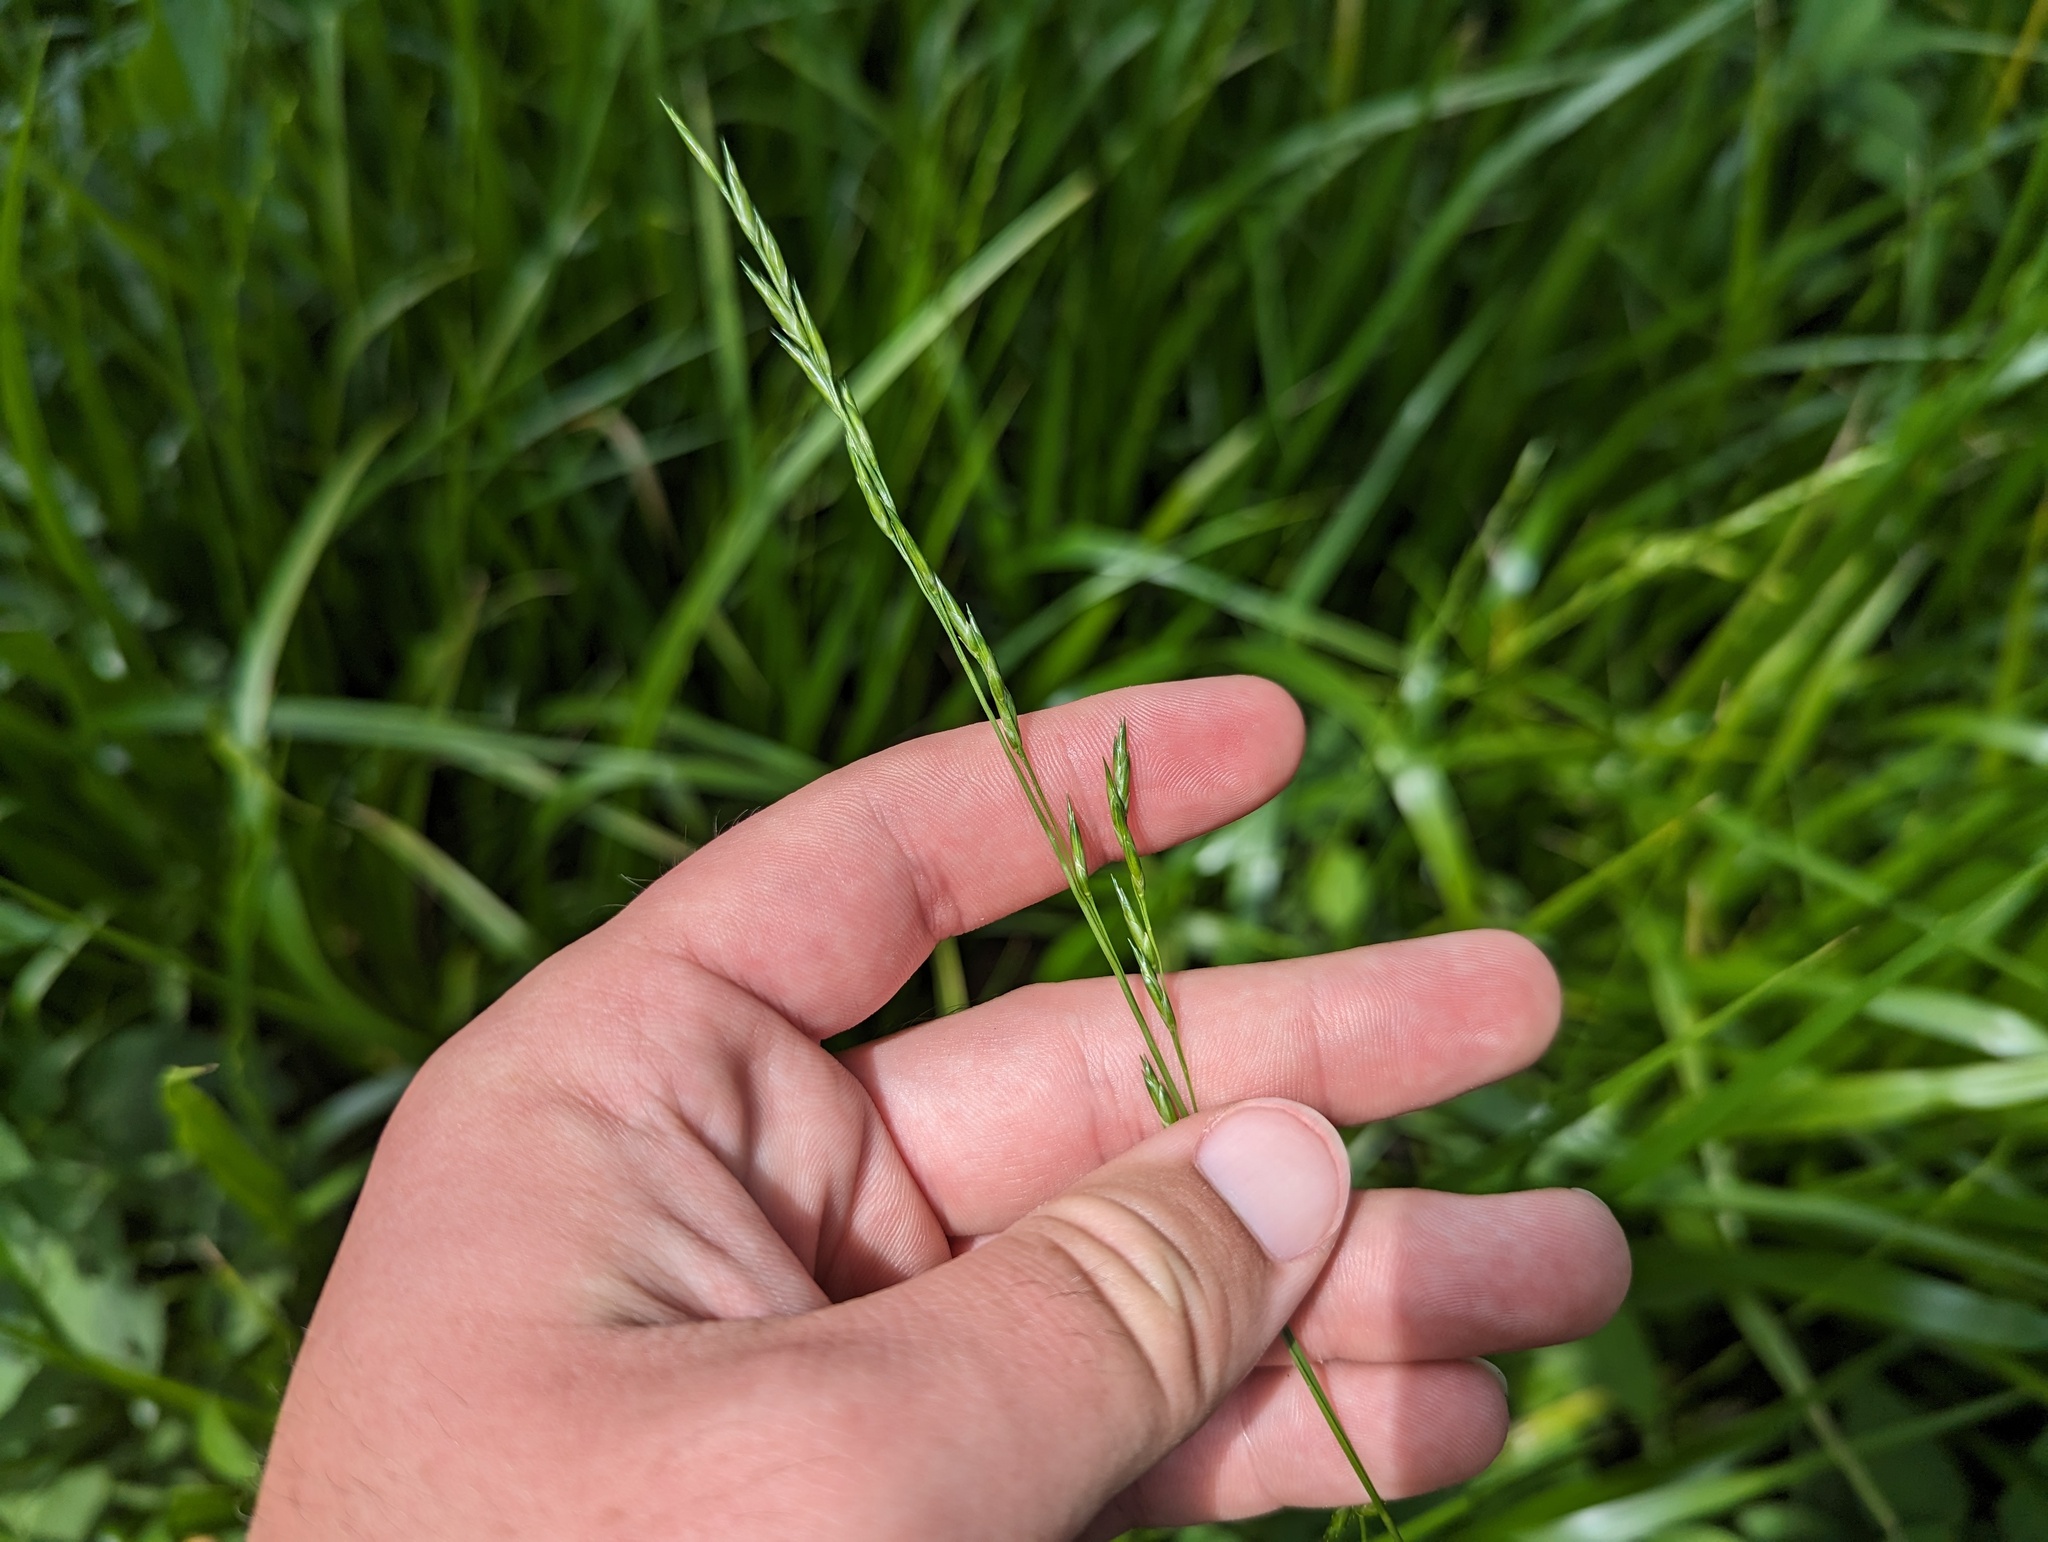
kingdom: Plantae
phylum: Tracheophyta
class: Liliopsida
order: Poales
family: Poaceae
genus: Diarrhena
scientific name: Diarrhena obovata
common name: Beakgrass
